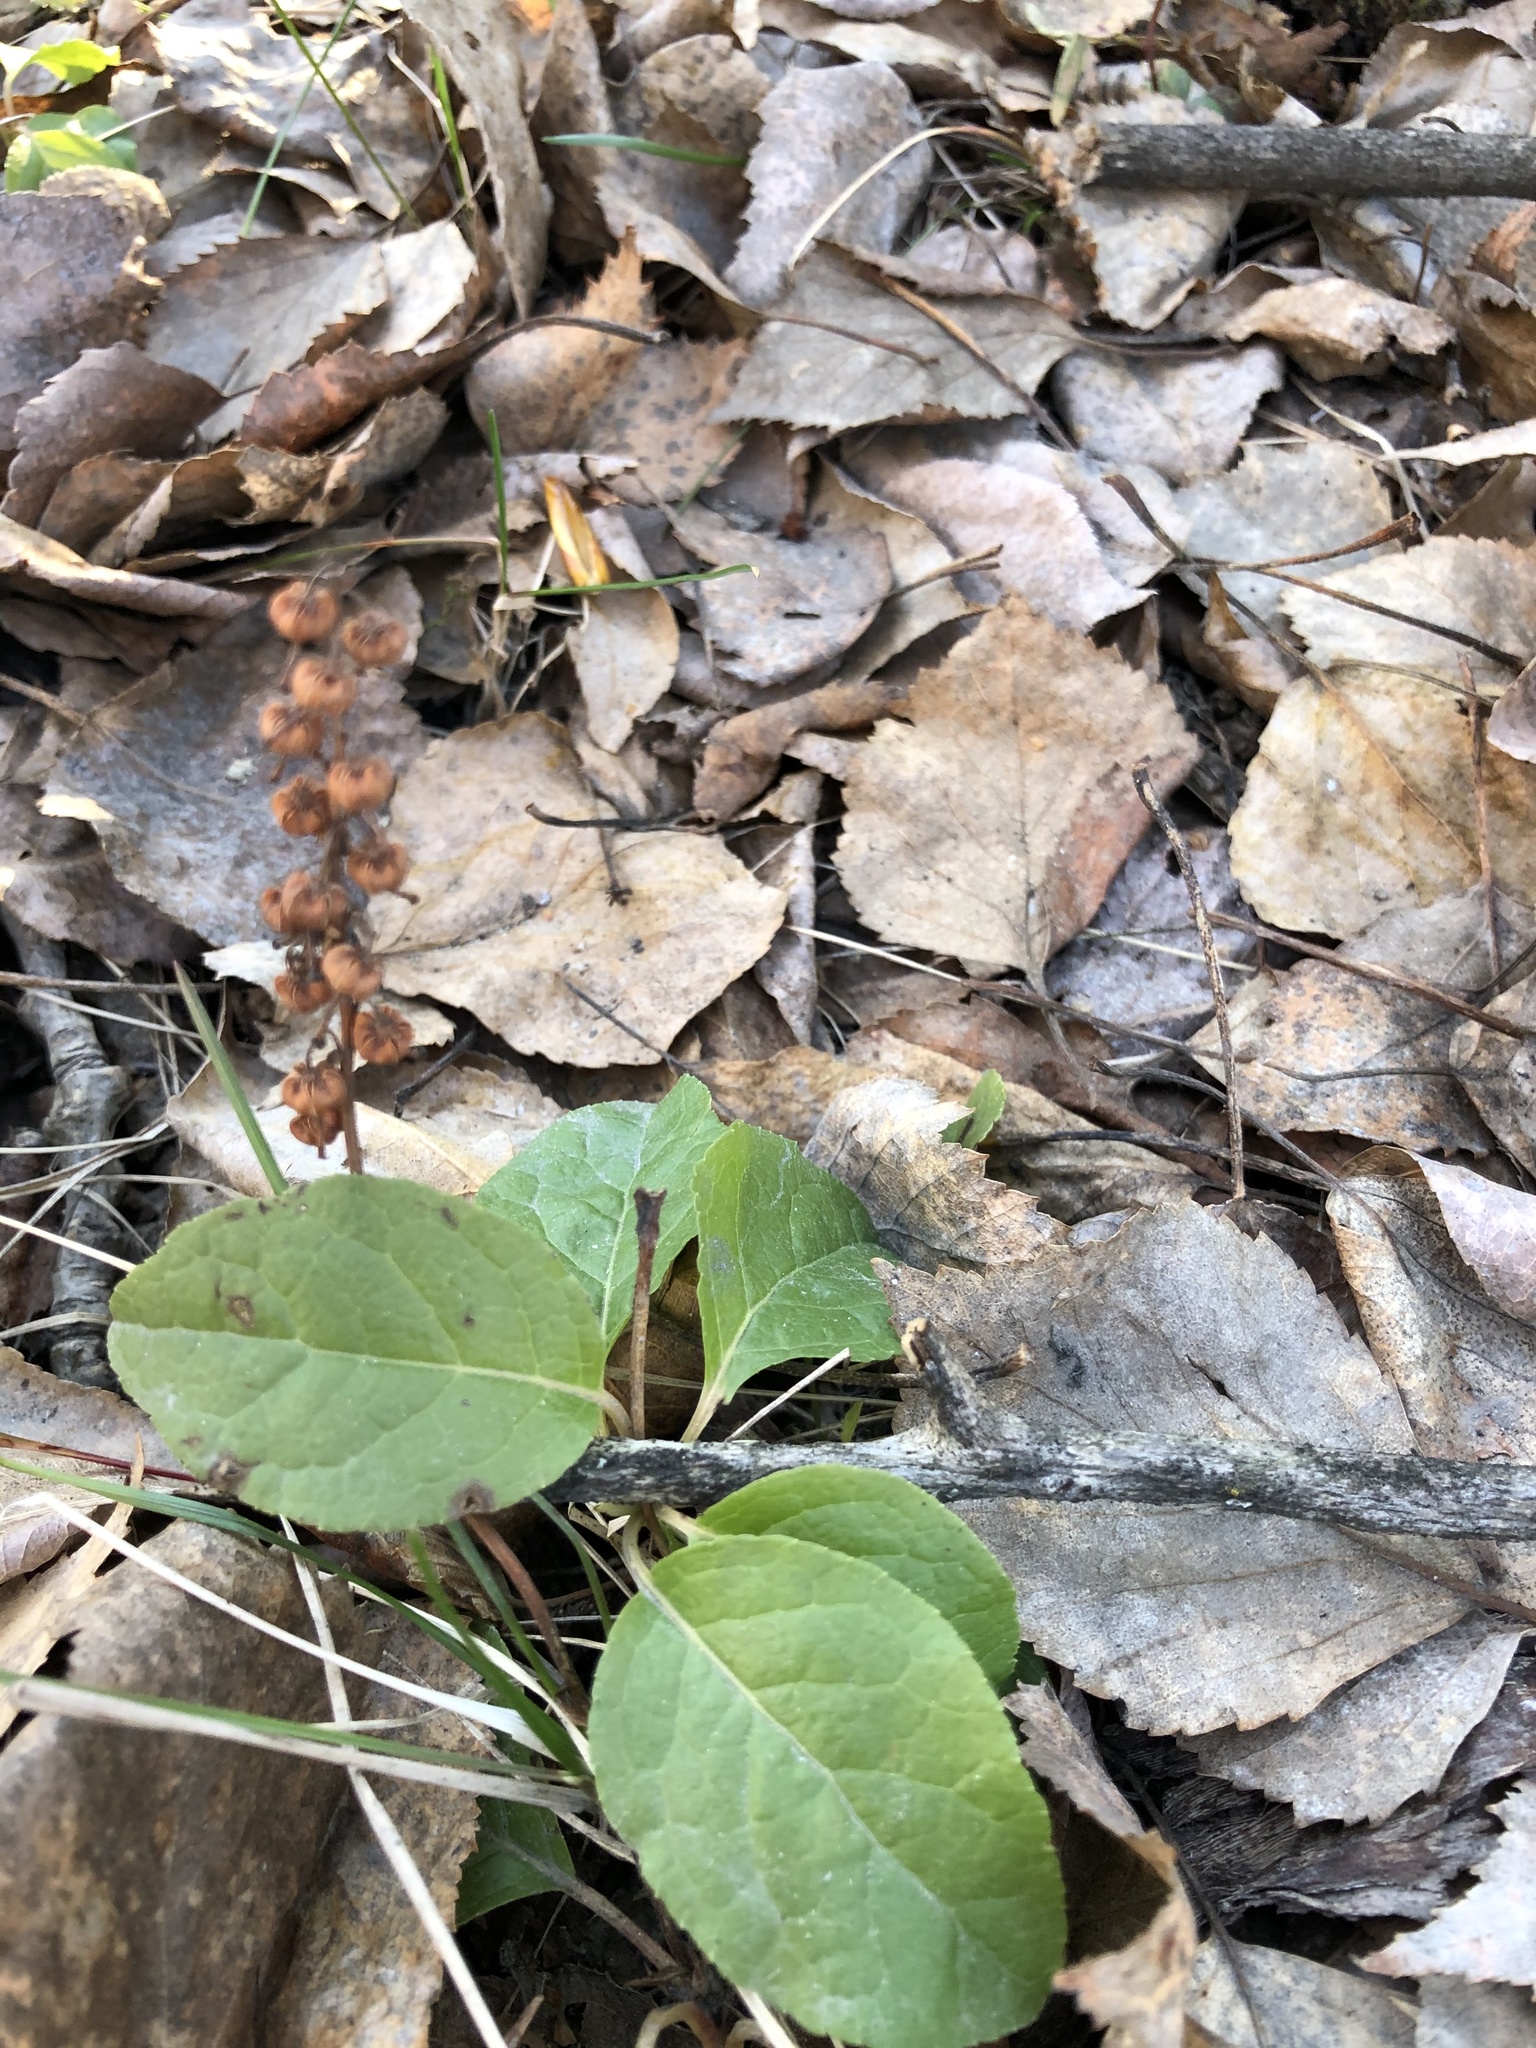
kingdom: Plantae
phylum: Tracheophyta
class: Magnoliopsida
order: Ericales
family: Ericaceae
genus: Orthilia
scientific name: Orthilia secunda
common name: One-sided orthilia
